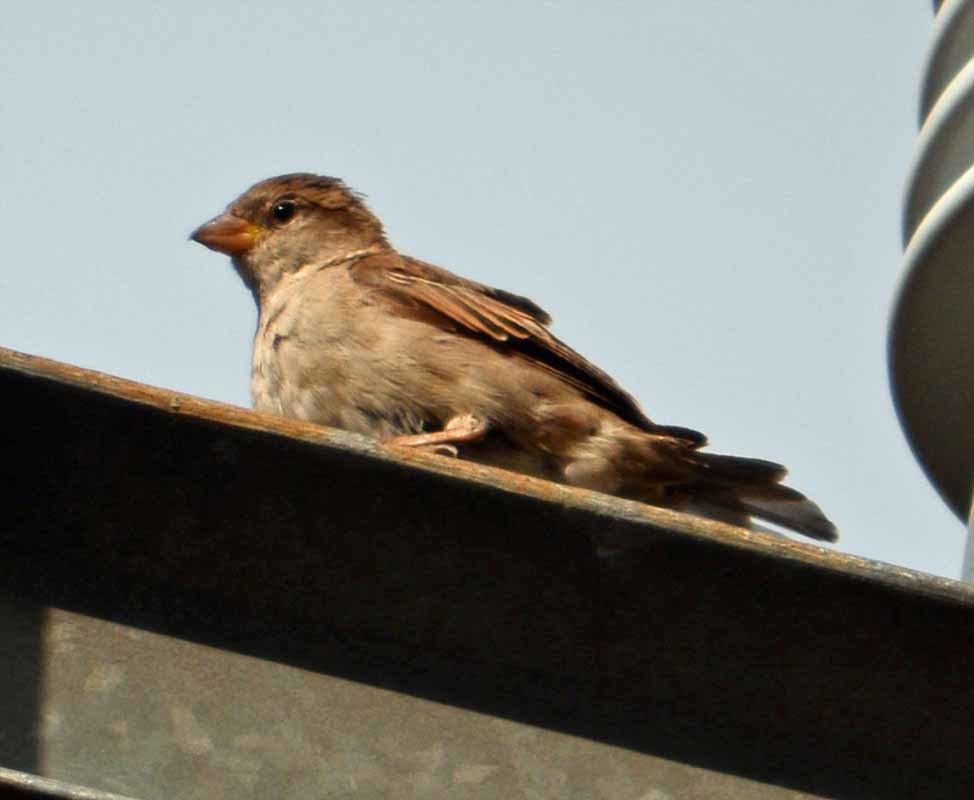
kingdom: Animalia
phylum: Chordata
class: Aves
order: Passeriformes
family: Passeridae
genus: Passer
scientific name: Passer domesticus
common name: House sparrow
